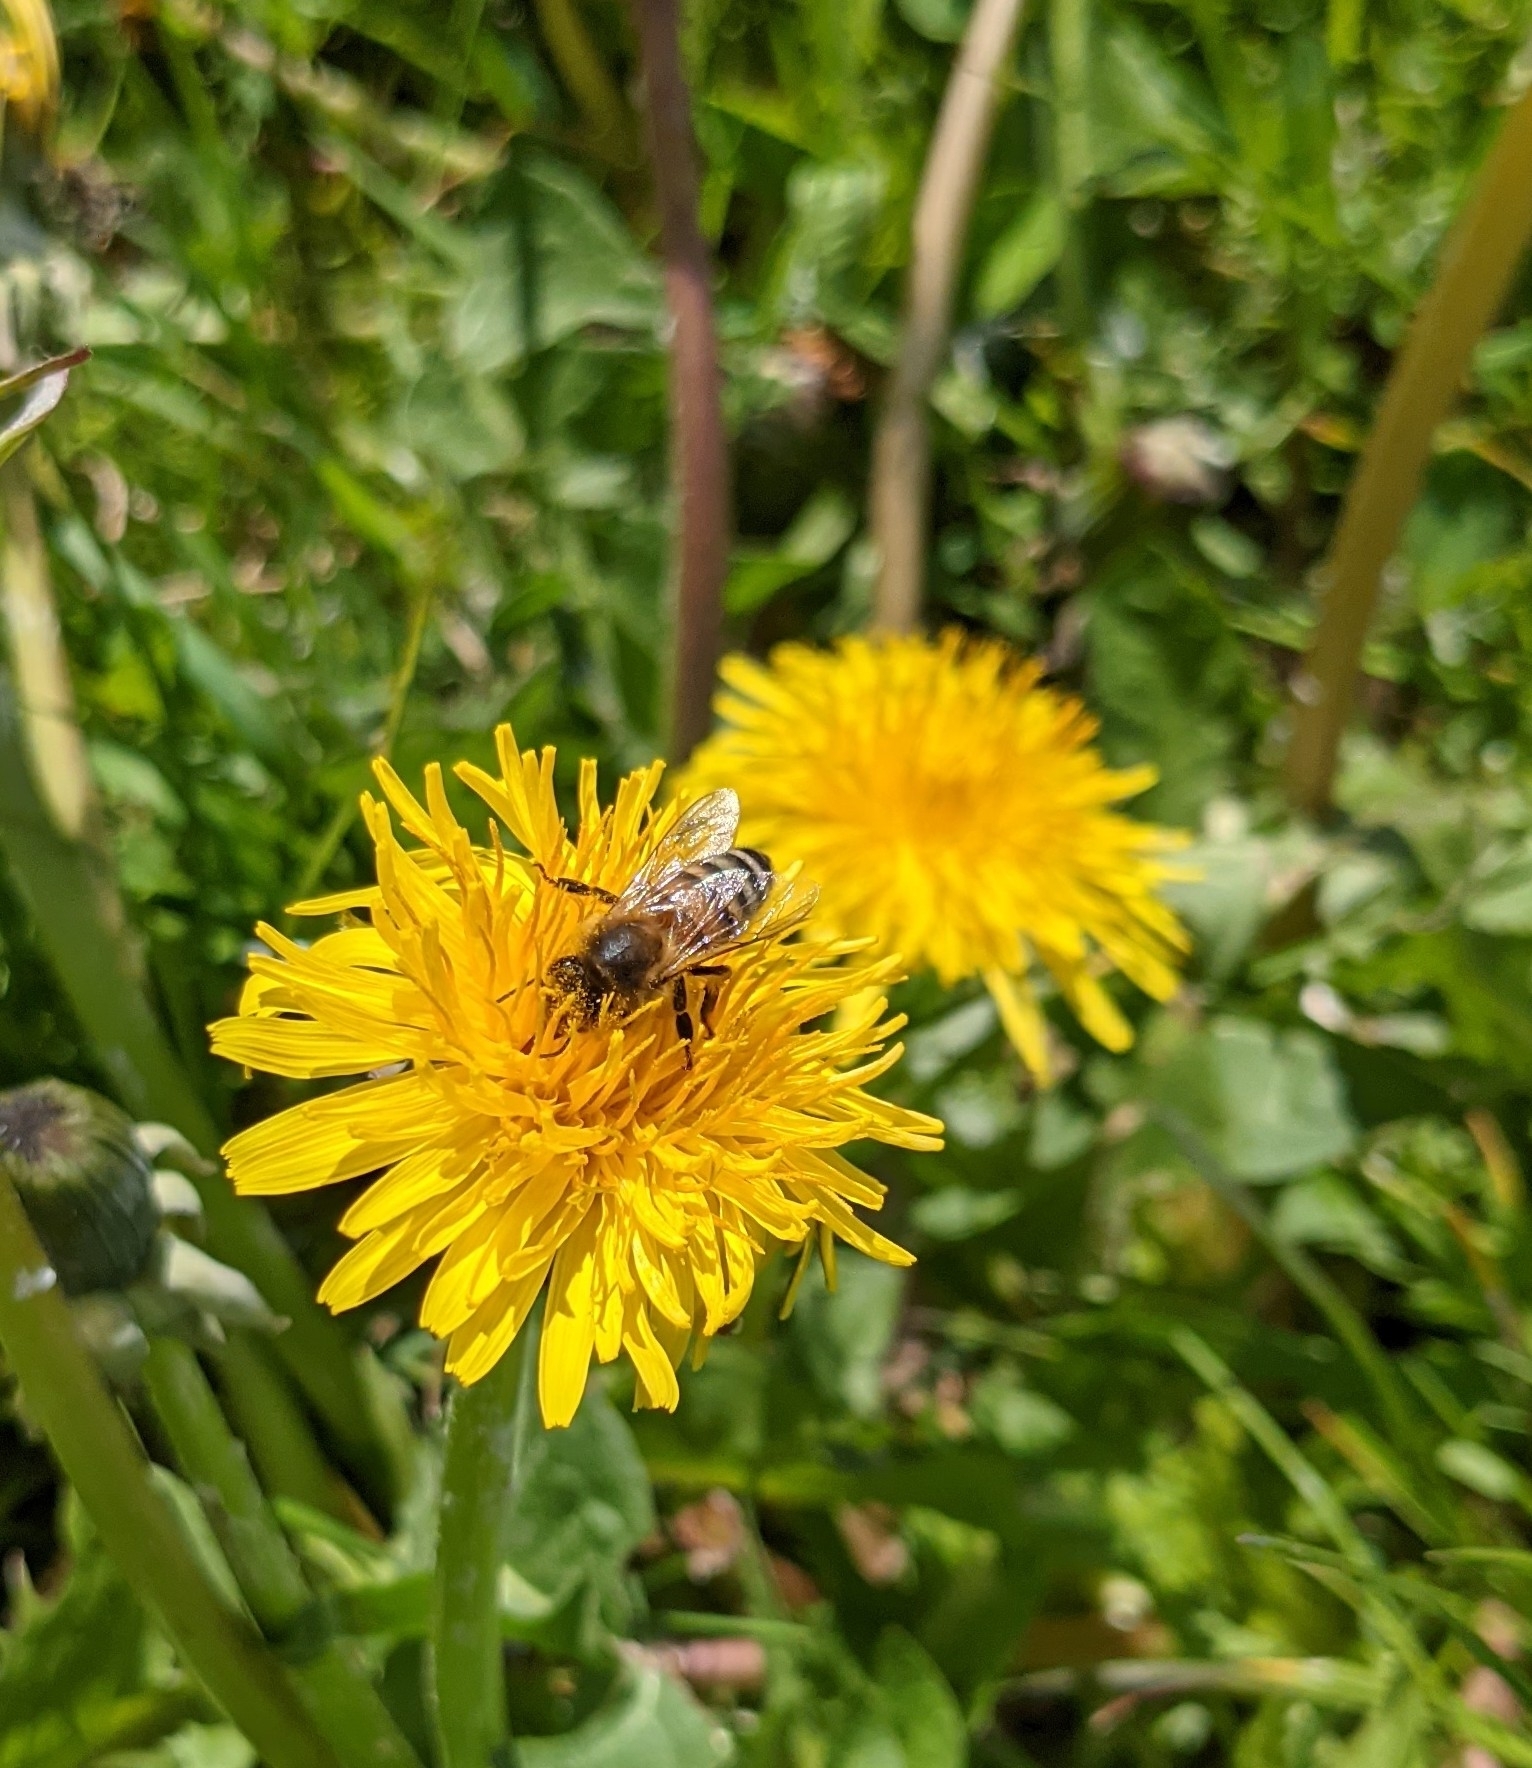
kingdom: Animalia
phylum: Arthropoda
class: Insecta
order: Hymenoptera
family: Apidae
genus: Apis
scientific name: Apis mellifera
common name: Honey bee
